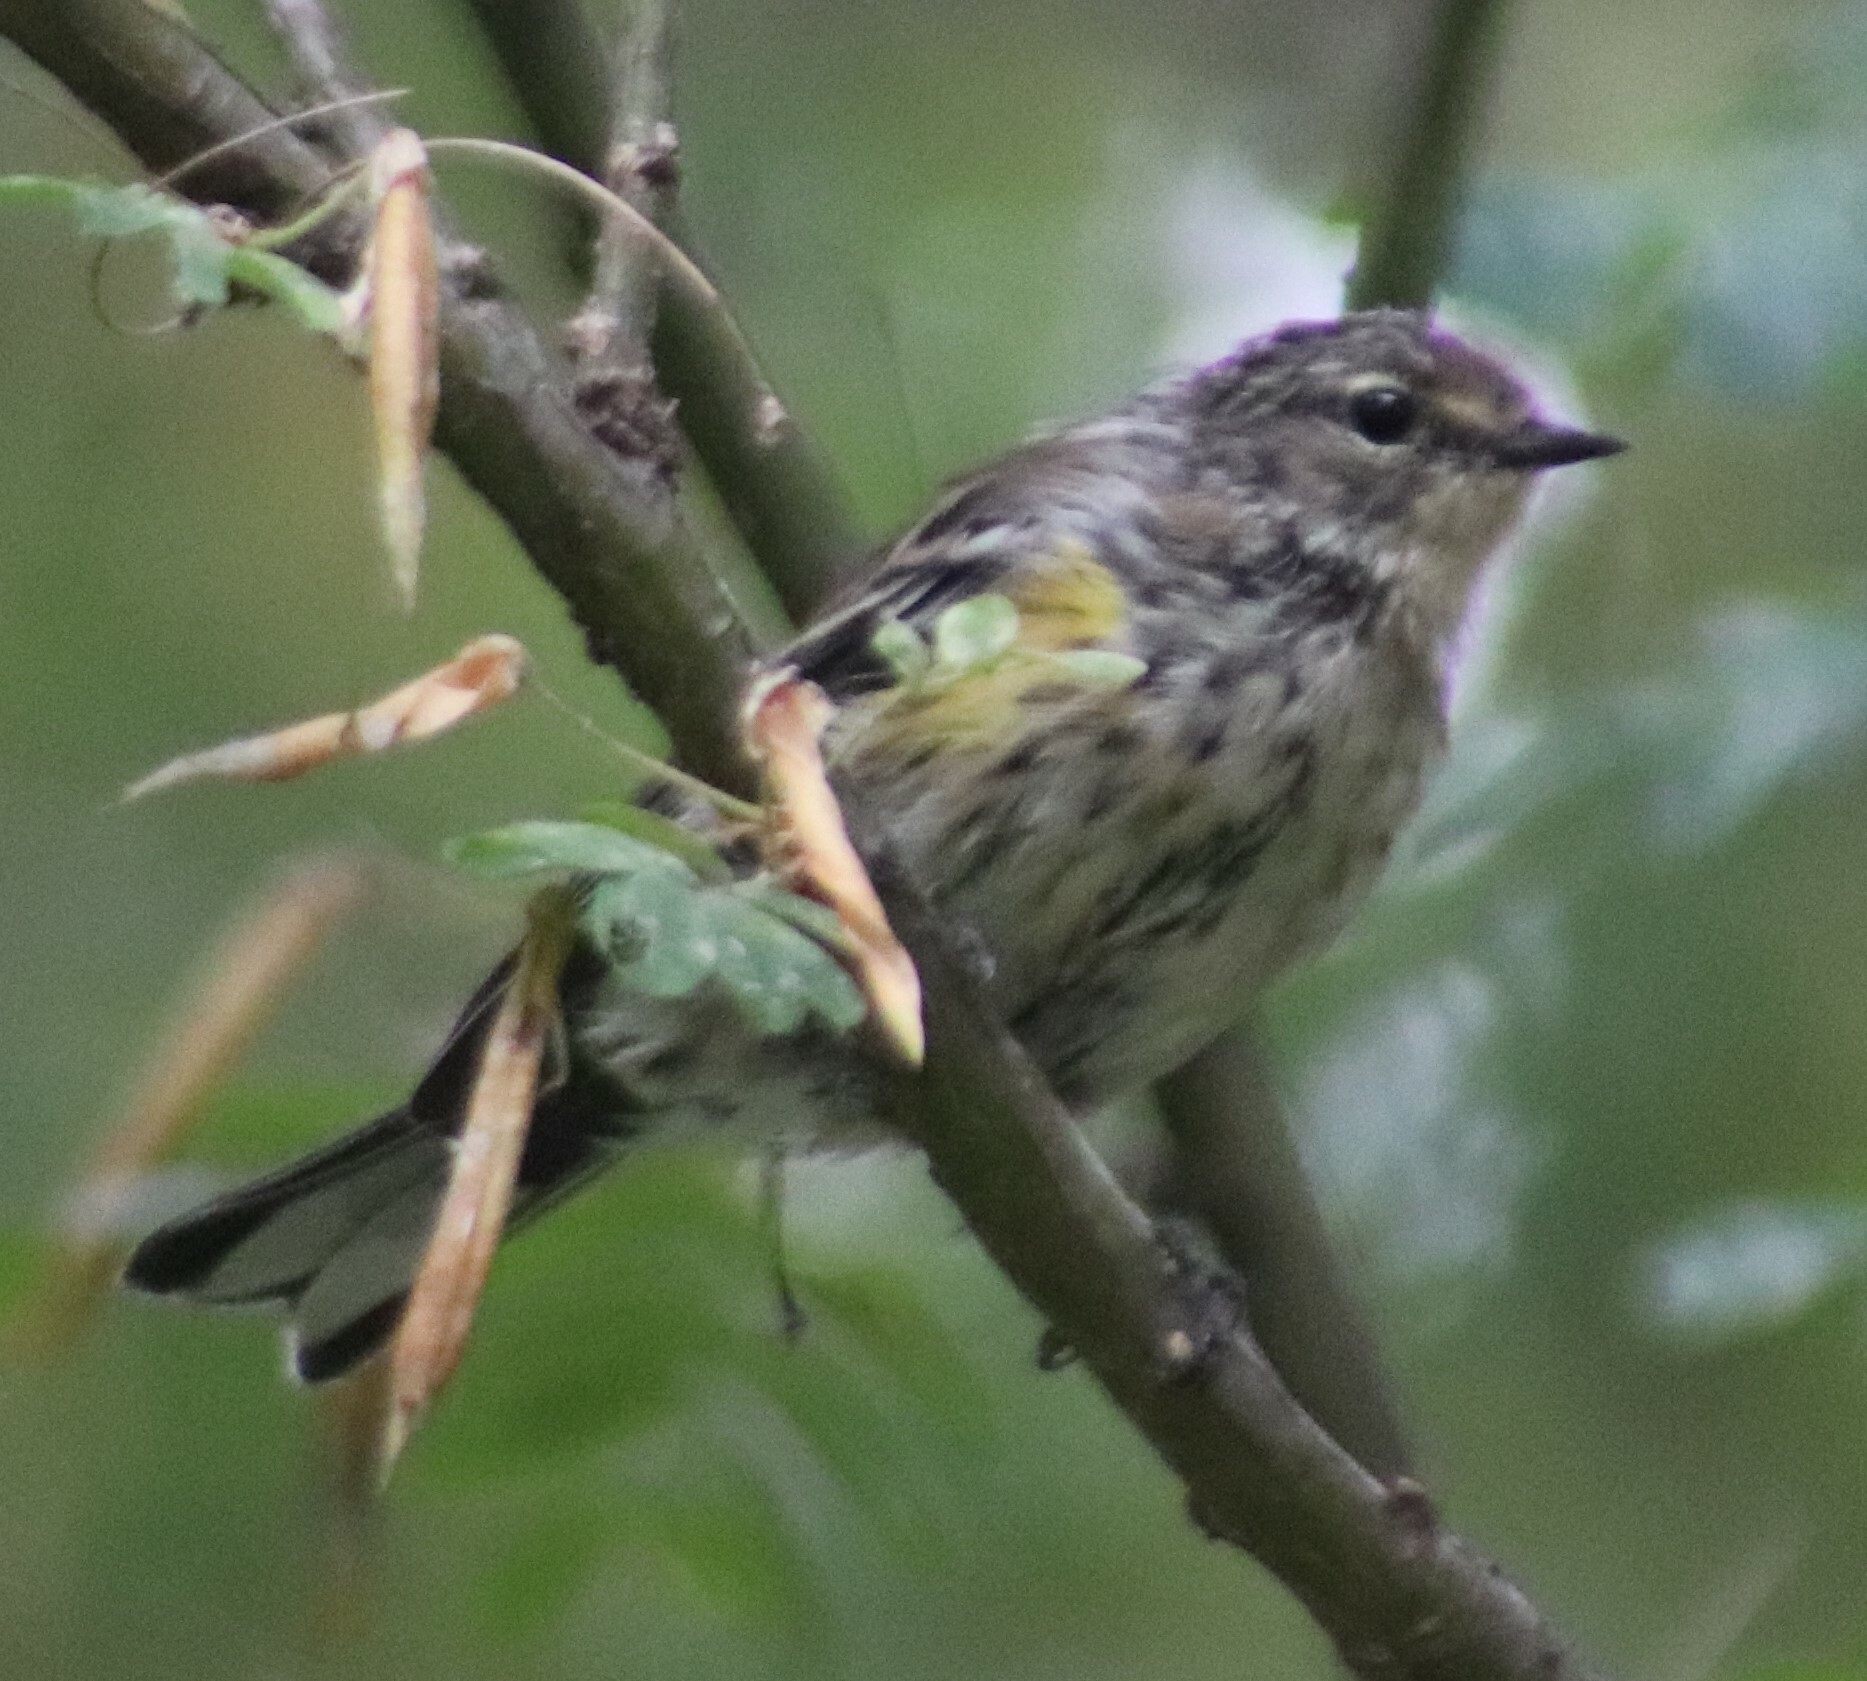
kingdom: Animalia
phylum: Chordata
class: Aves
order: Passeriformes
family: Parulidae
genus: Setophaga
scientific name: Setophaga coronata
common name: Myrtle warbler
